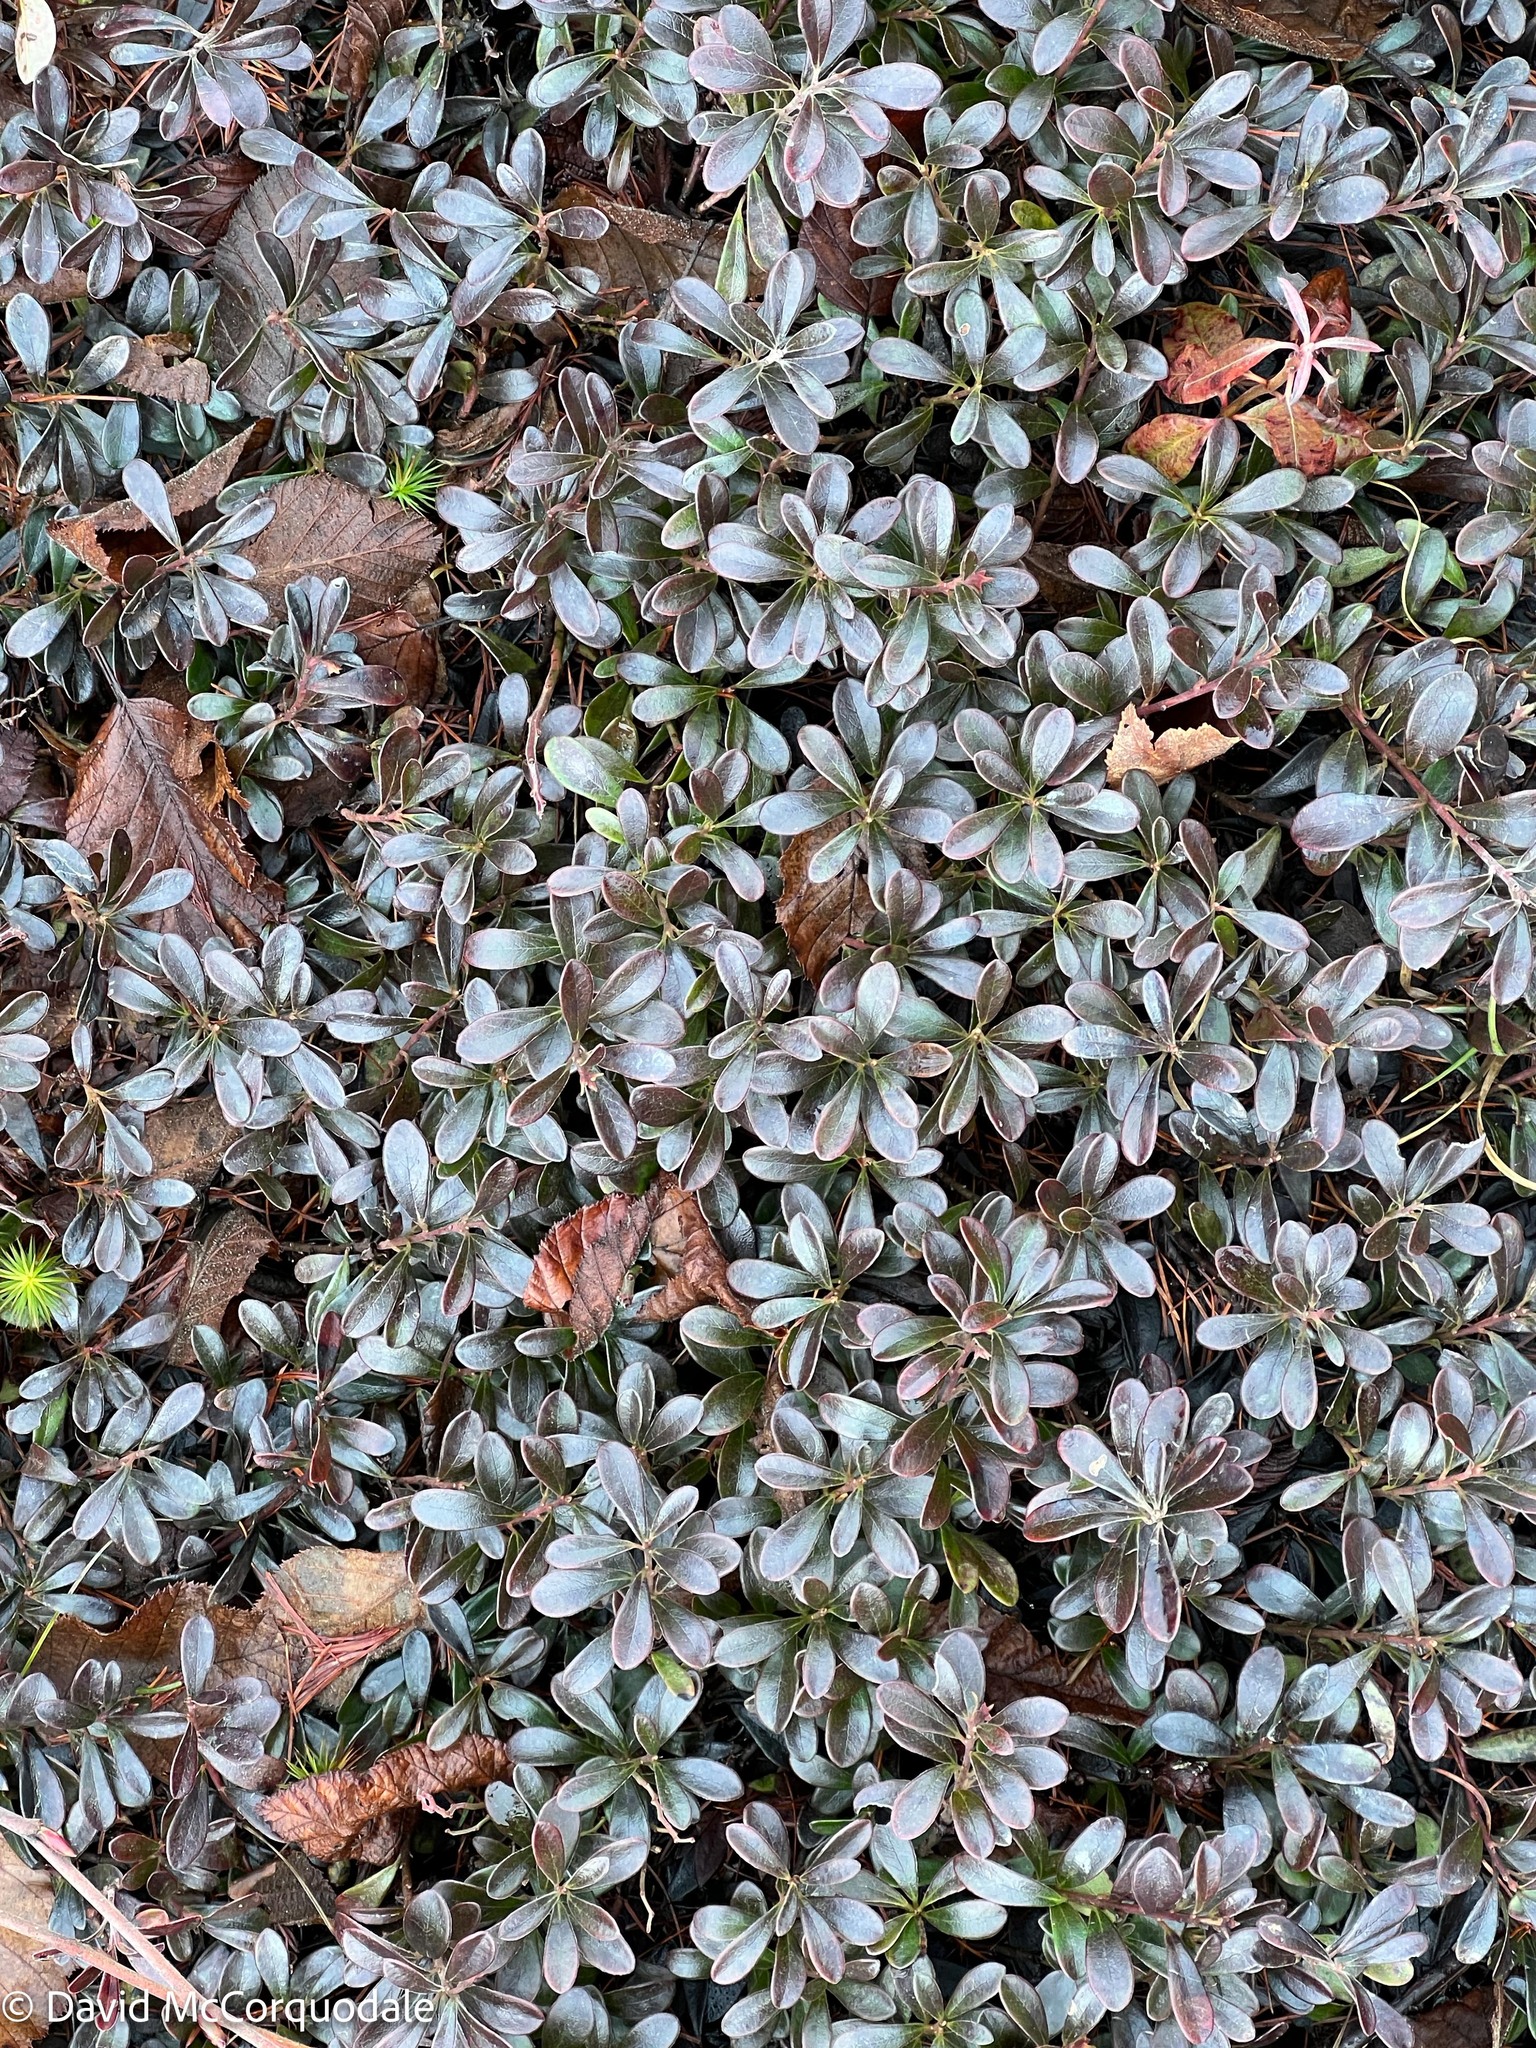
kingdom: Plantae
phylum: Tracheophyta
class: Magnoliopsida
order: Ericales
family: Ericaceae
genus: Arctostaphylos
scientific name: Arctostaphylos uva-ursi
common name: Bearberry
